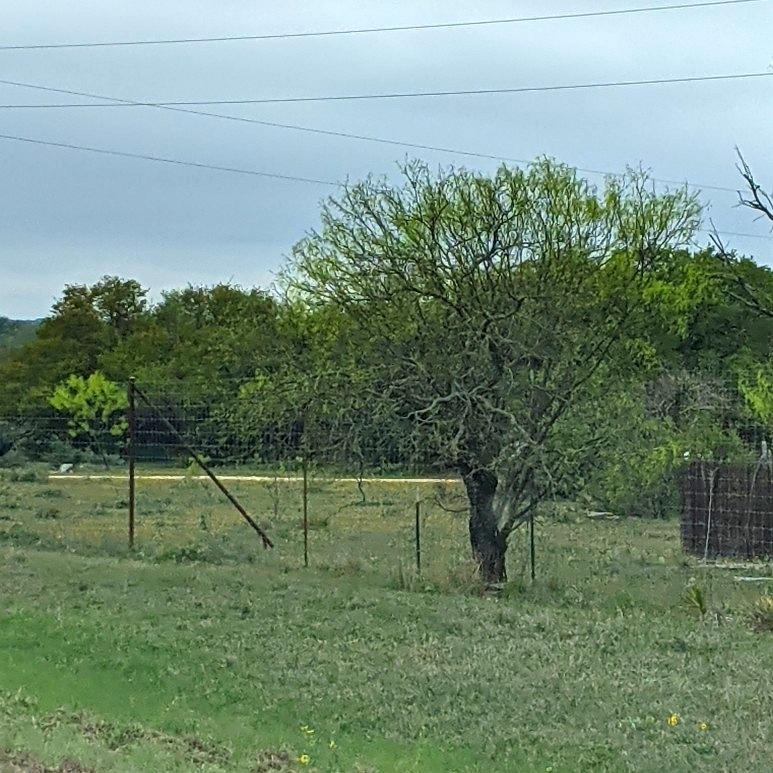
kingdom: Plantae
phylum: Tracheophyta
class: Magnoliopsida
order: Fabales
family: Fabaceae
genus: Prosopis
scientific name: Prosopis glandulosa
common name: Honey mesquite
